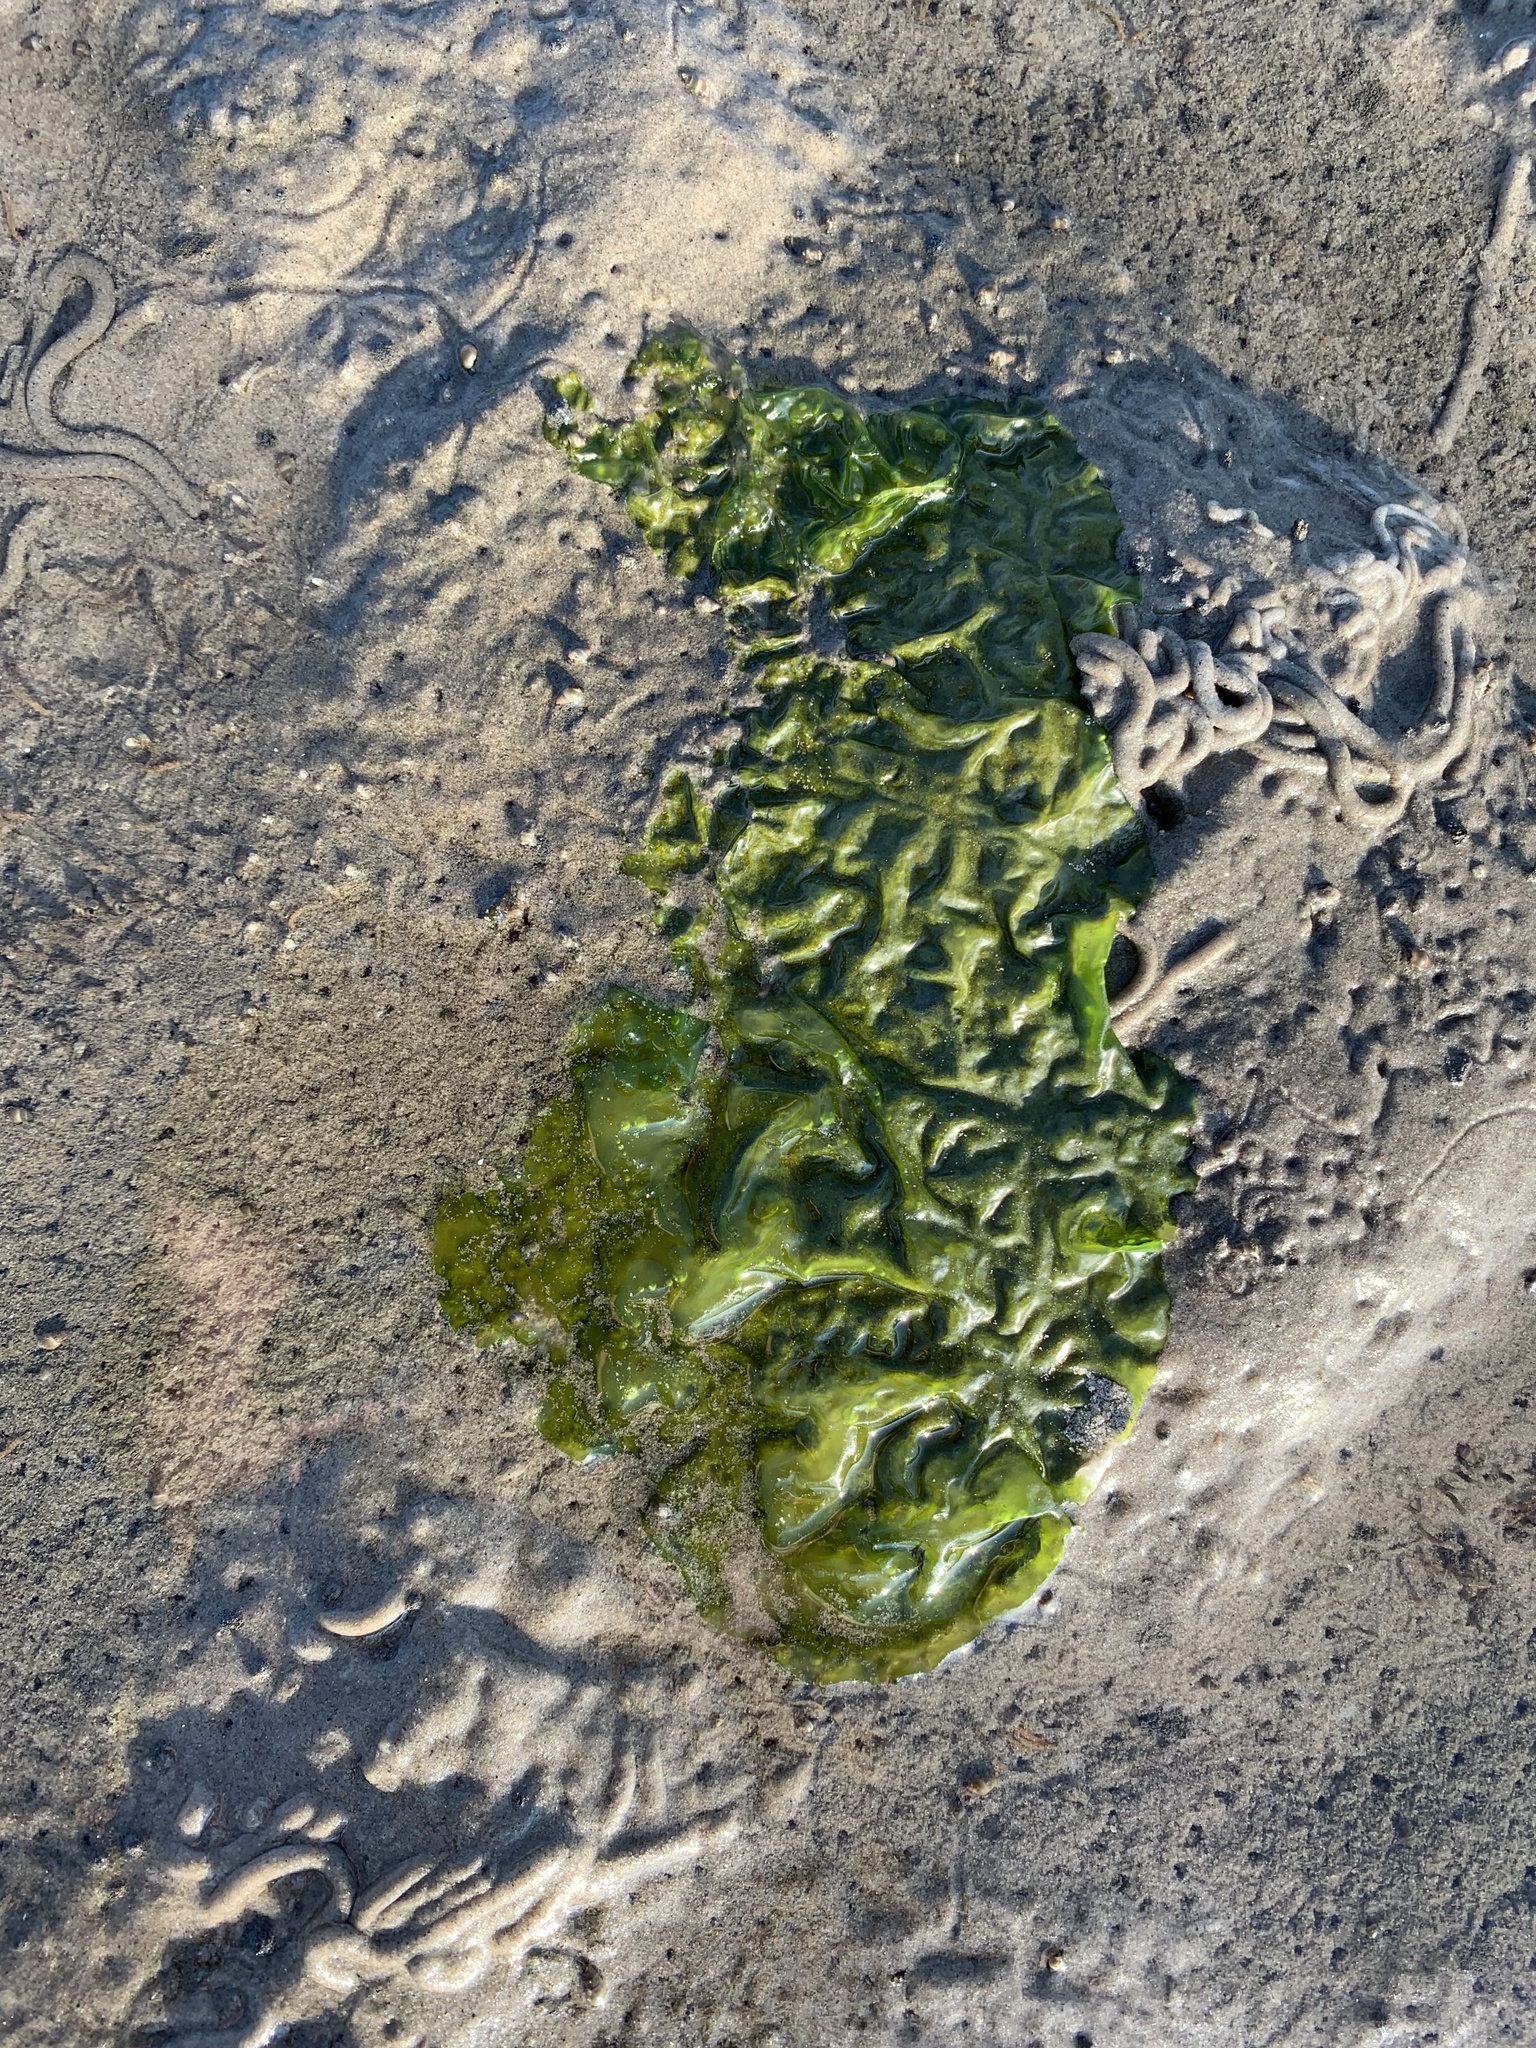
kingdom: Plantae
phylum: Chlorophyta
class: Ulvophyceae
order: Ulvales
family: Ulvaceae
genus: Ulva
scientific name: Ulva lactuca
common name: Sea lettuce
